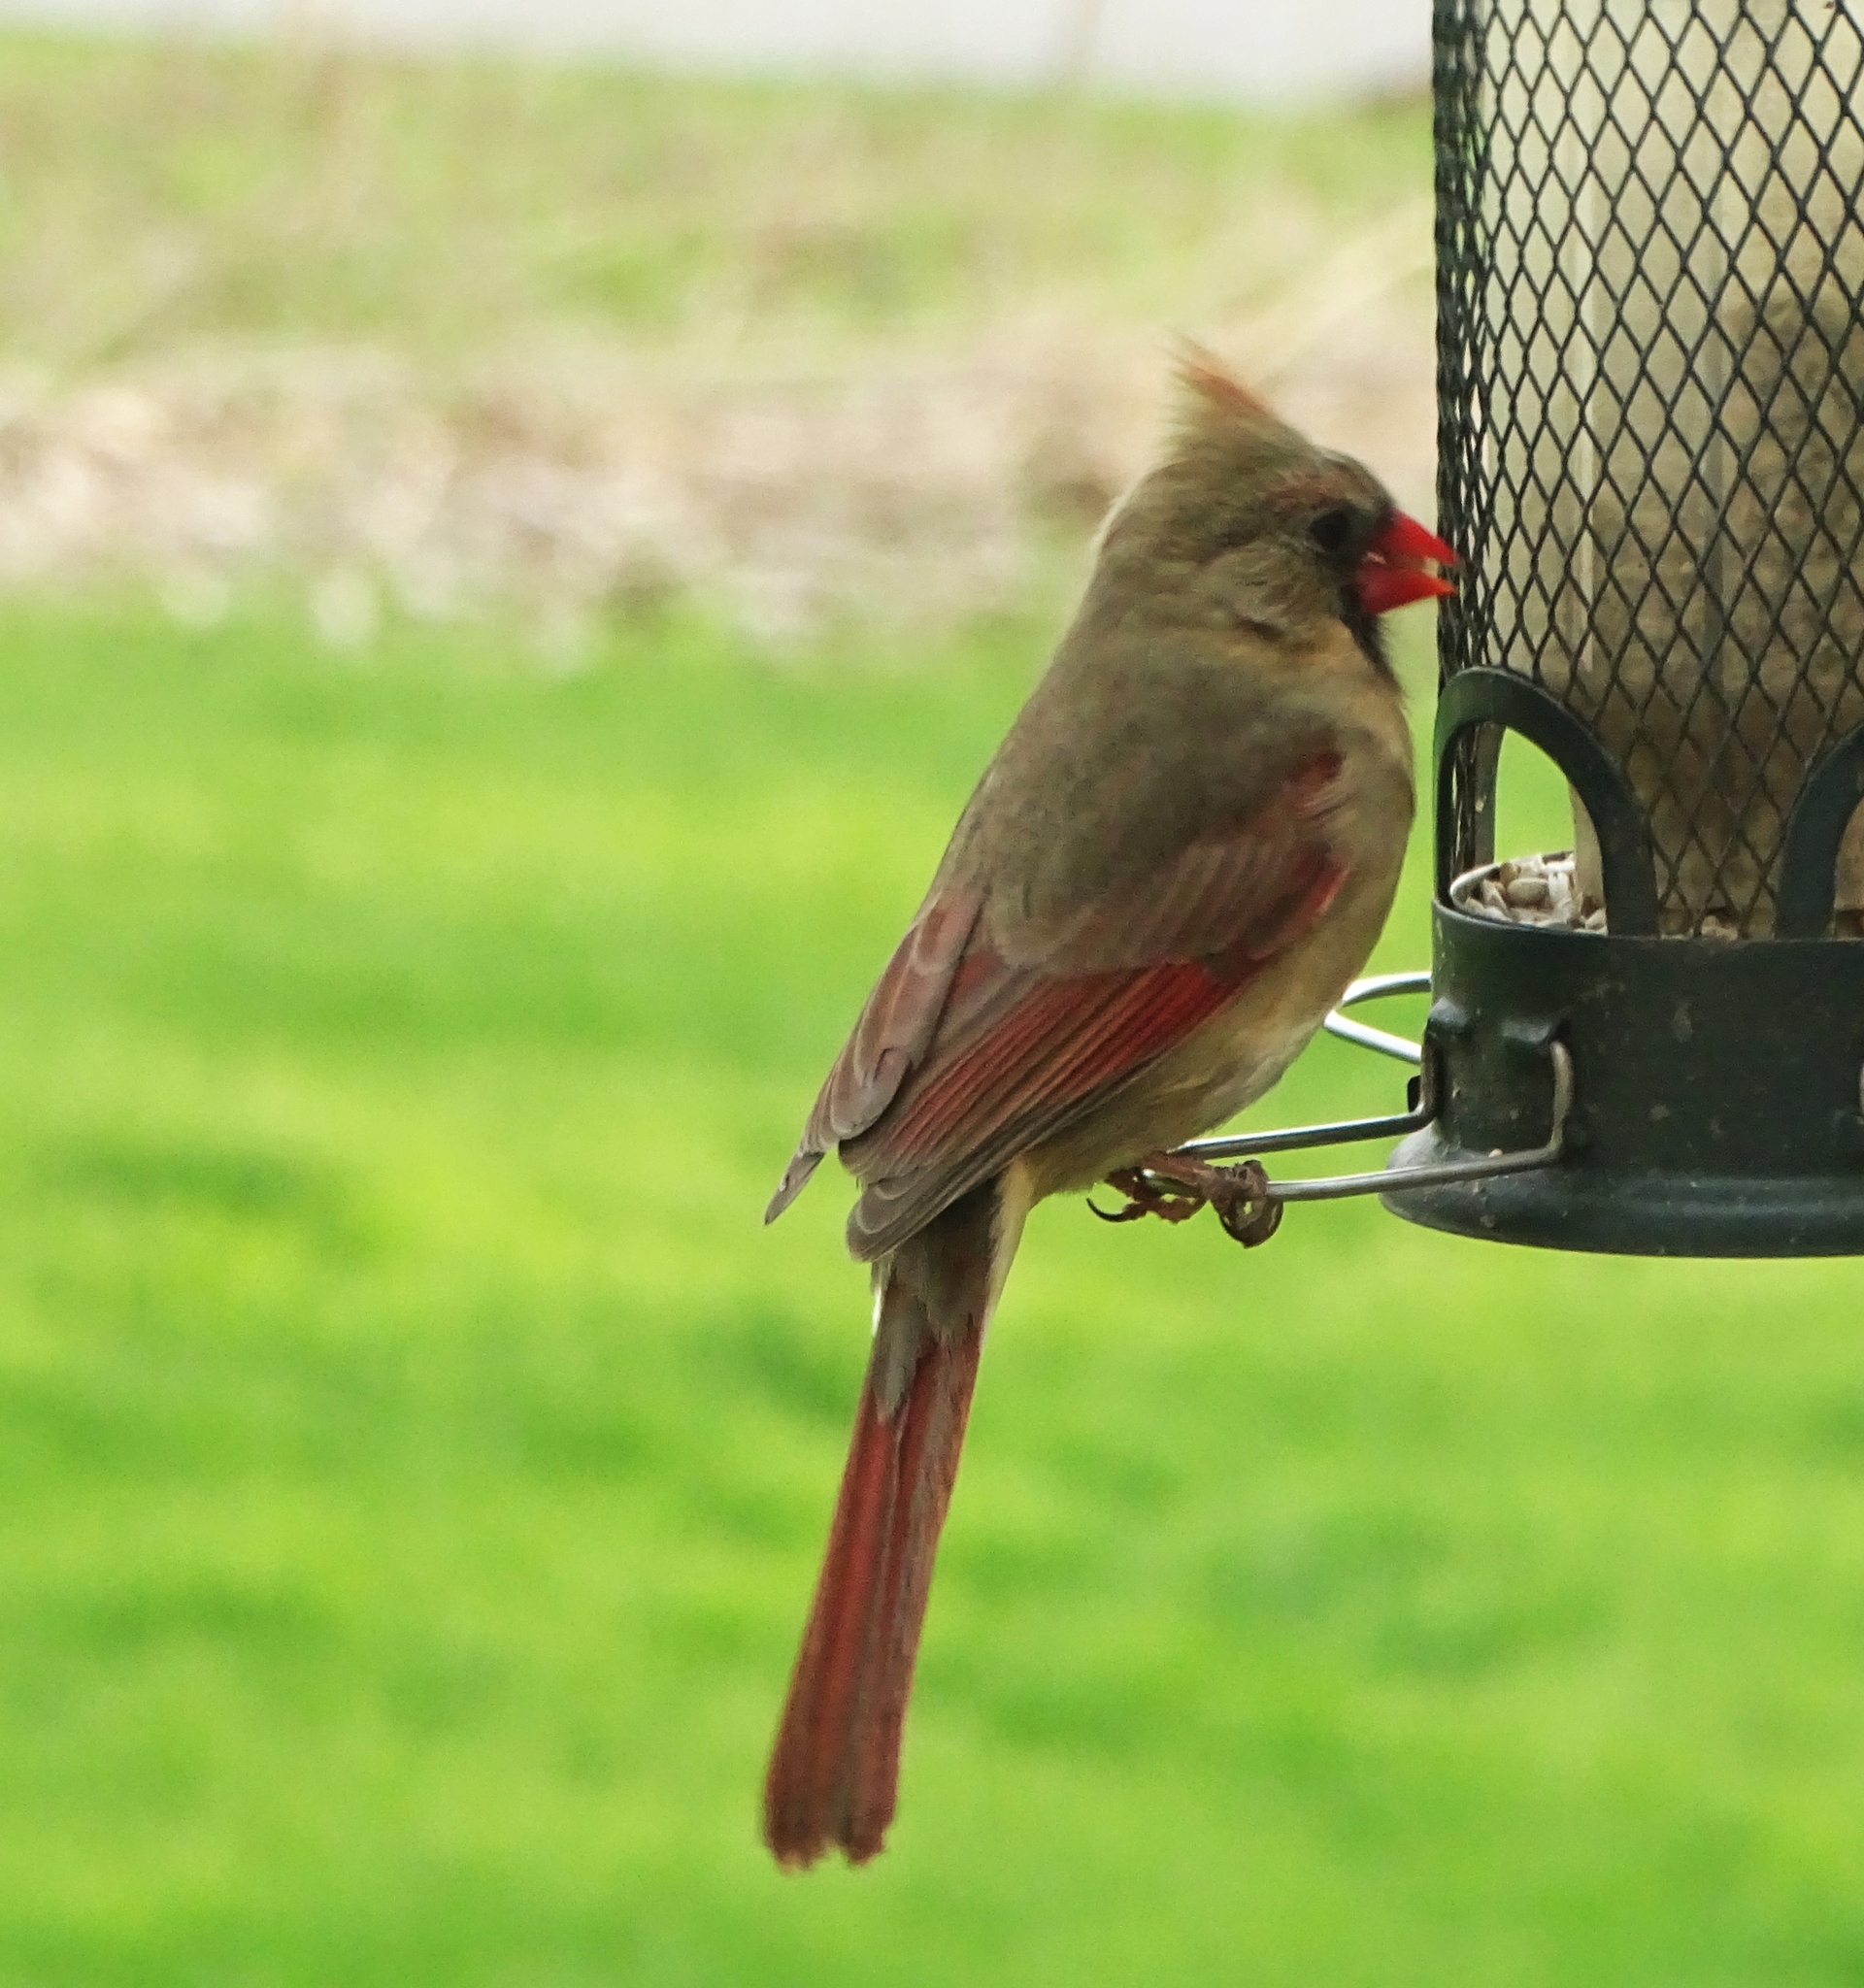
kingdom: Animalia
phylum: Chordata
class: Aves
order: Passeriformes
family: Cardinalidae
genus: Cardinalis
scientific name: Cardinalis cardinalis
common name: Northern cardinal
